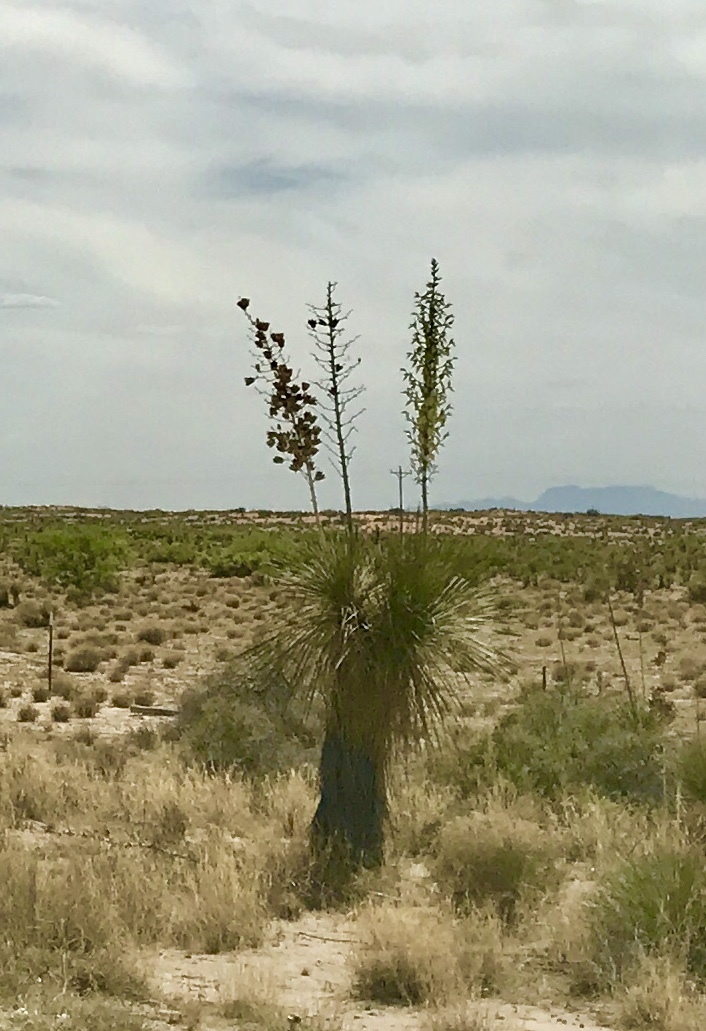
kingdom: Plantae
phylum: Tracheophyta
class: Liliopsida
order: Asparagales
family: Asparagaceae
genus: Yucca
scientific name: Yucca elata
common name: Palmella
